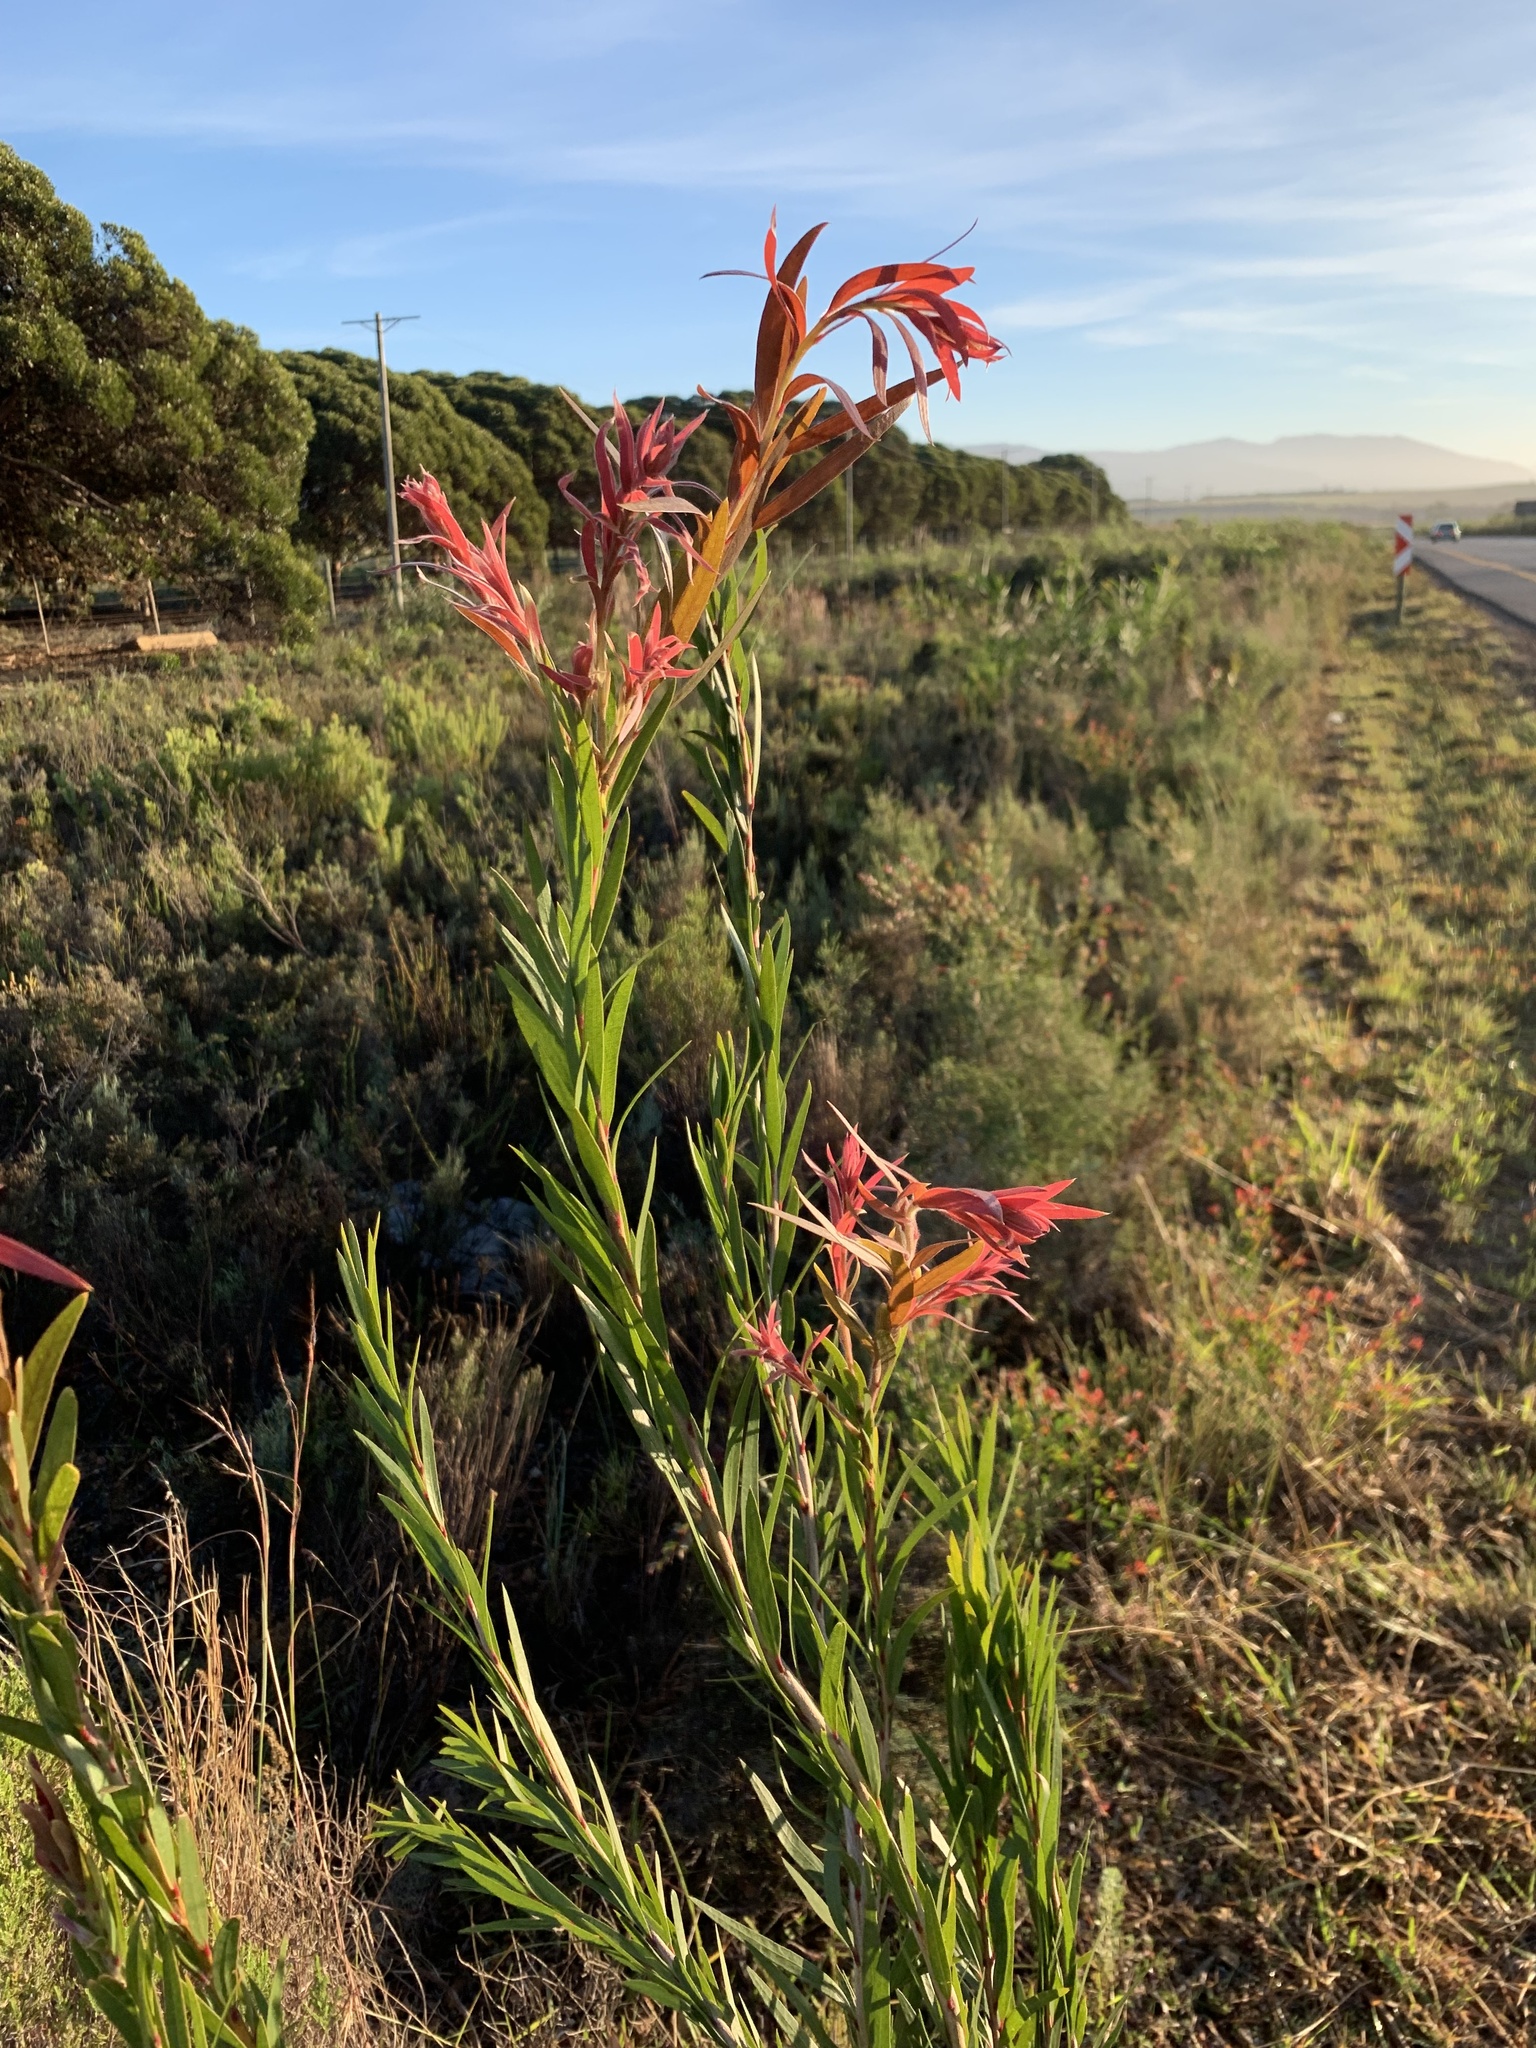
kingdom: Plantae
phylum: Tracheophyta
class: Magnoliopsida
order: Myrtales
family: Myrtaceae
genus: Callistemon
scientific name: Callistemon viminalis
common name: Drooping bottlebrush
